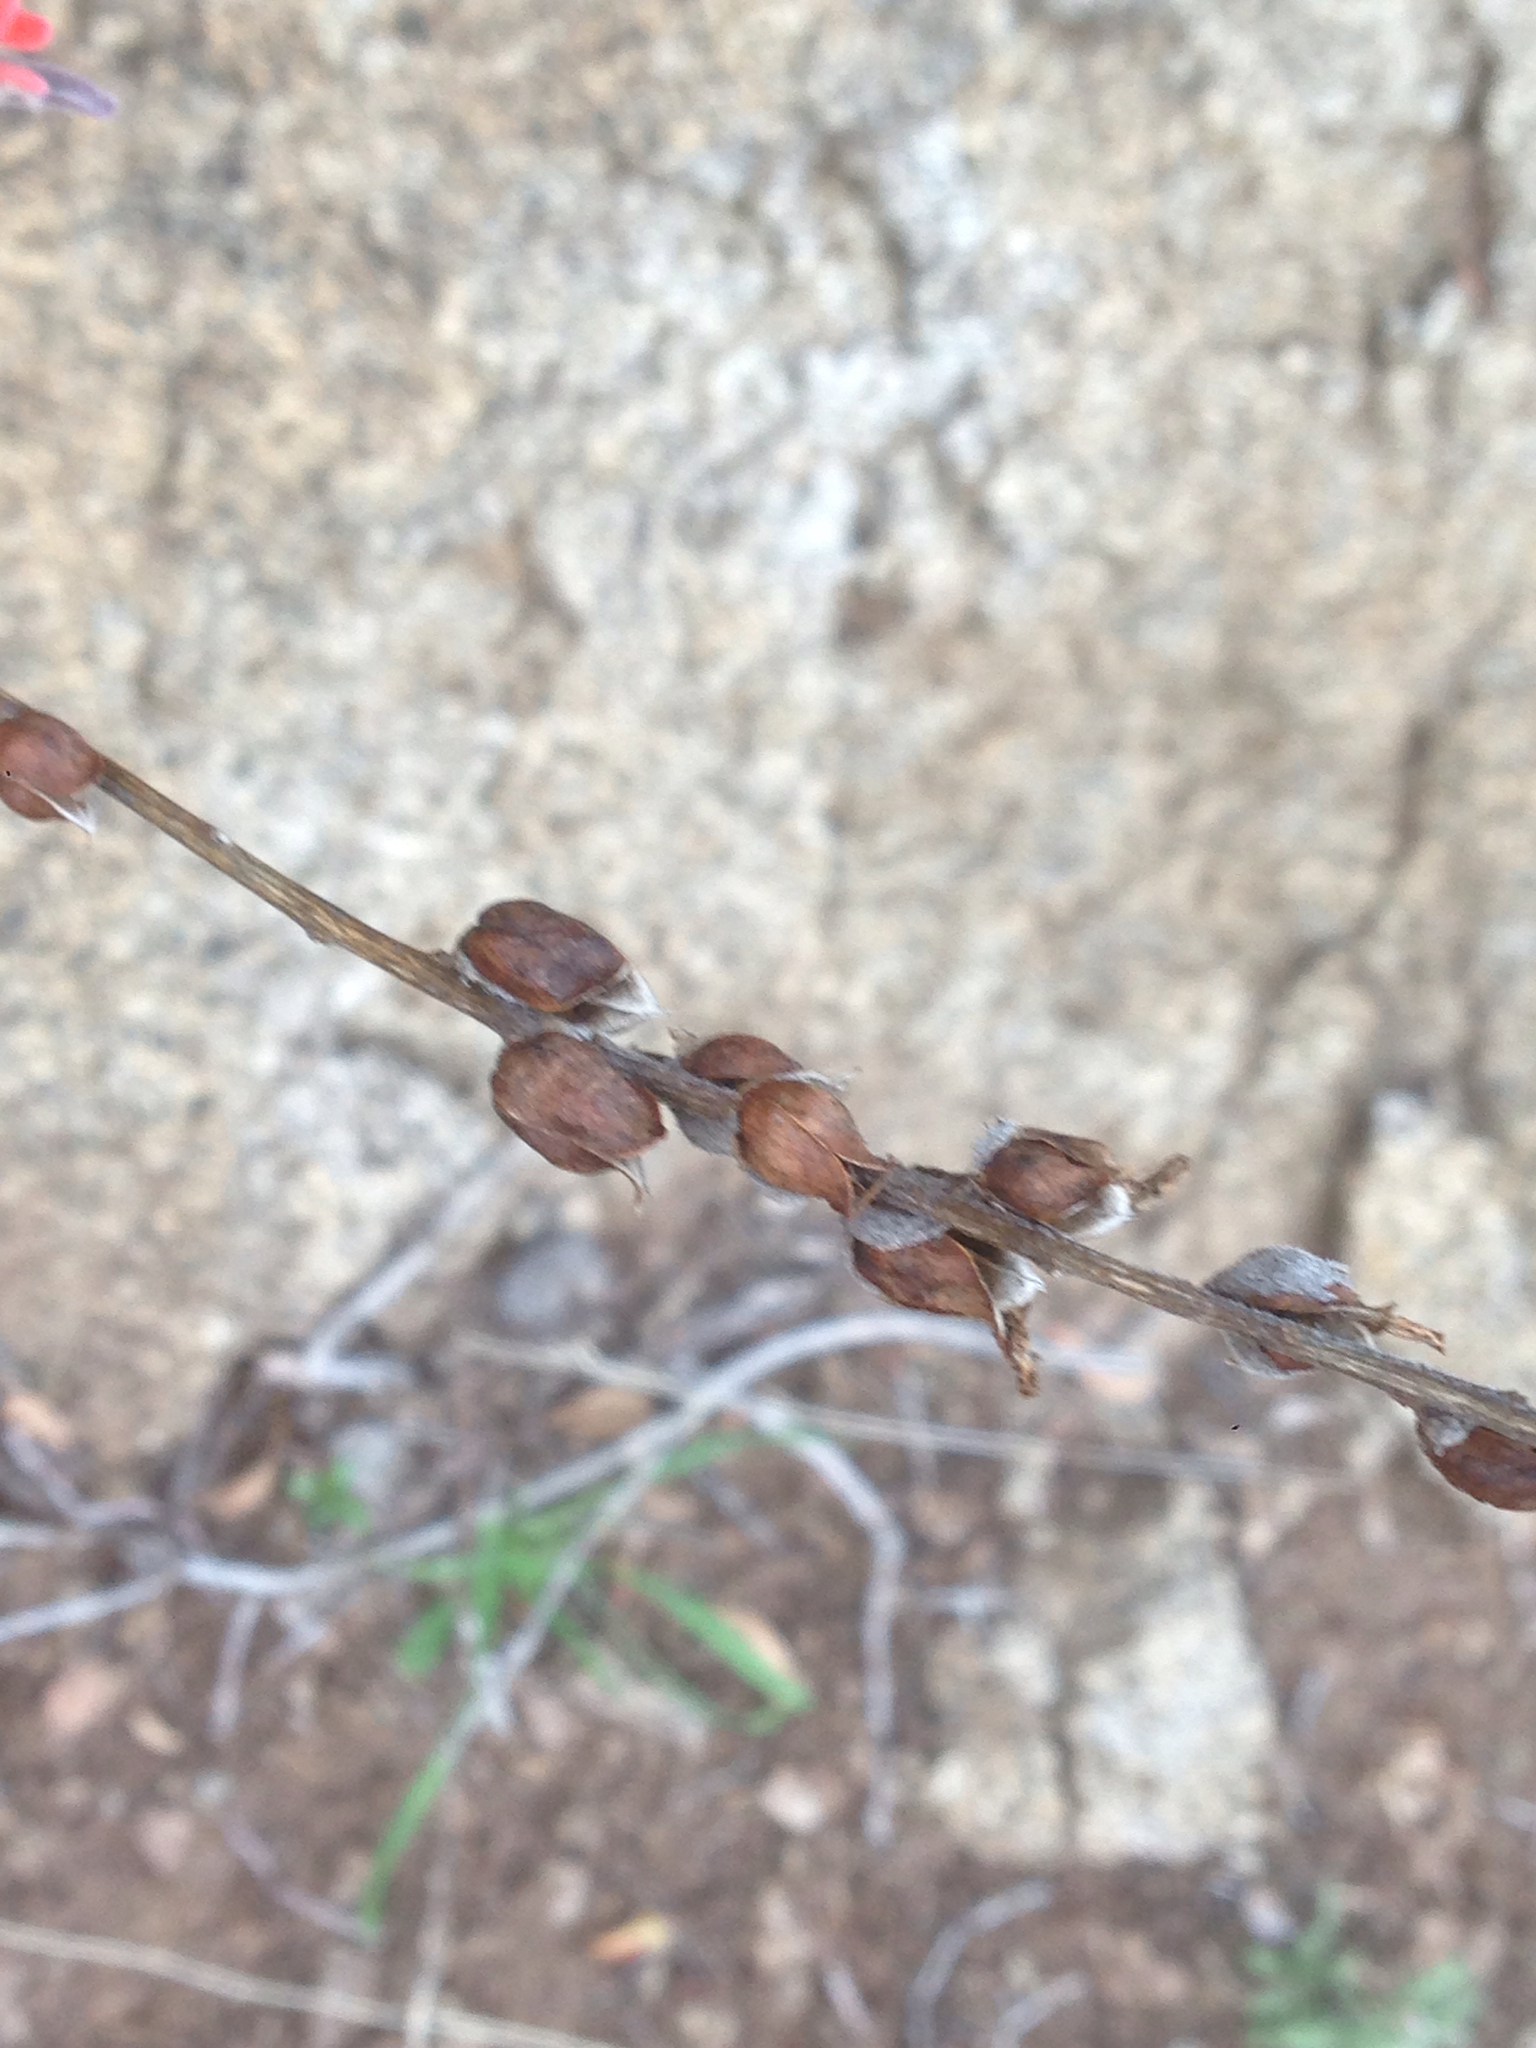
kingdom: Plantae
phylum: Tracheophyta
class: Magnoliopsida
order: Lamiales
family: Orobanchaceae
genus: Castilleja
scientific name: Castilleja foliolosa
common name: Woolly indian paintbrush
